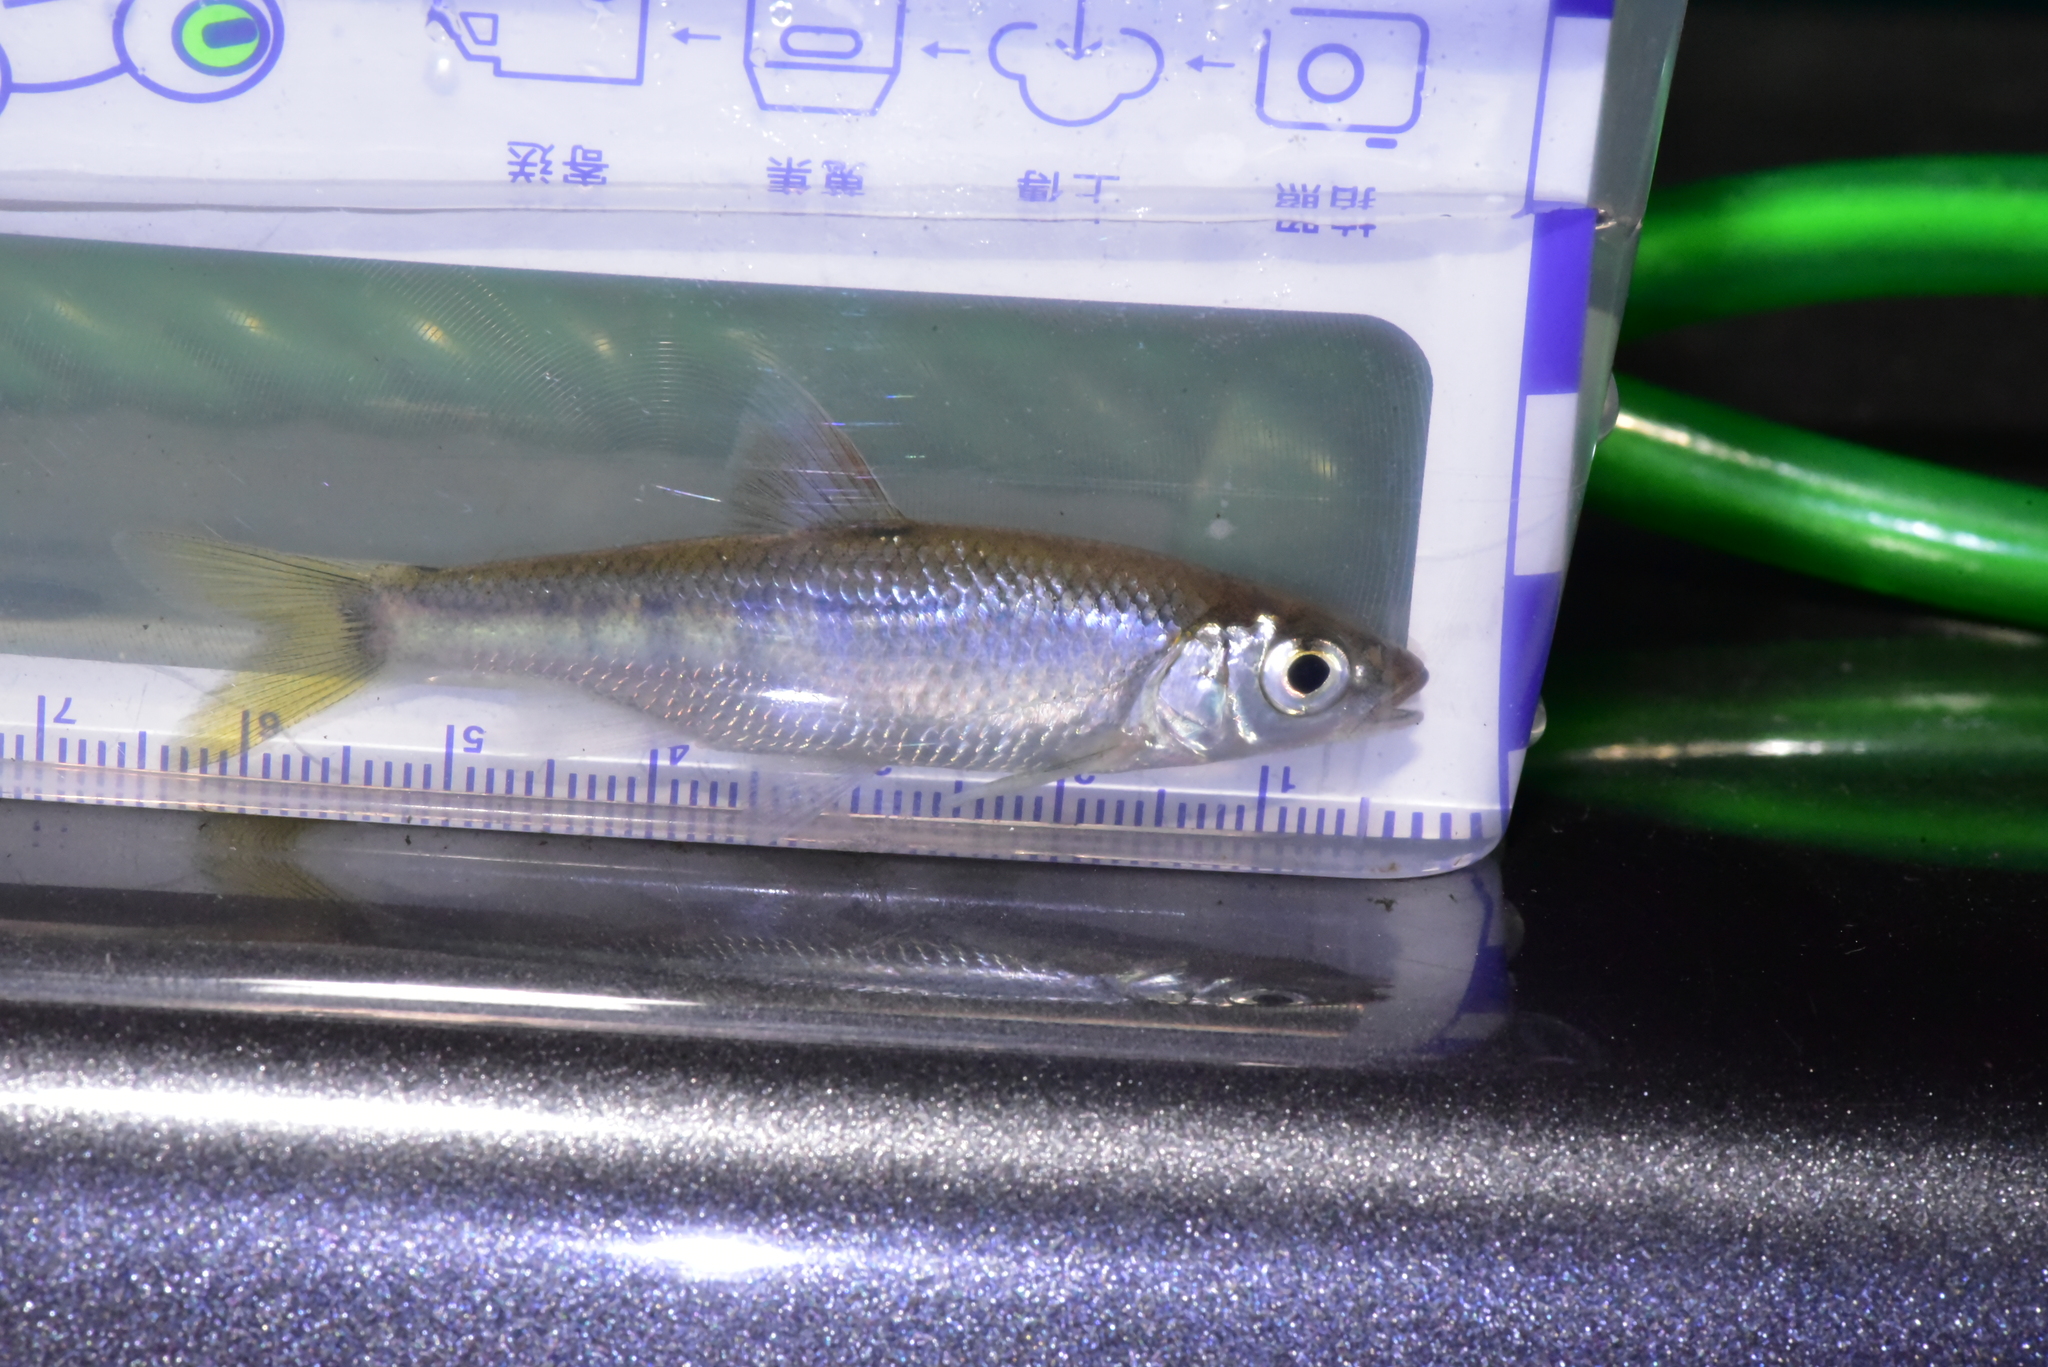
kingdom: Animalia
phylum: Chordata
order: Cypriniformes
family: Cyprinidae
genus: Opsariichthys
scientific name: Opsariichthys evolans
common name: Freshwater minnow
